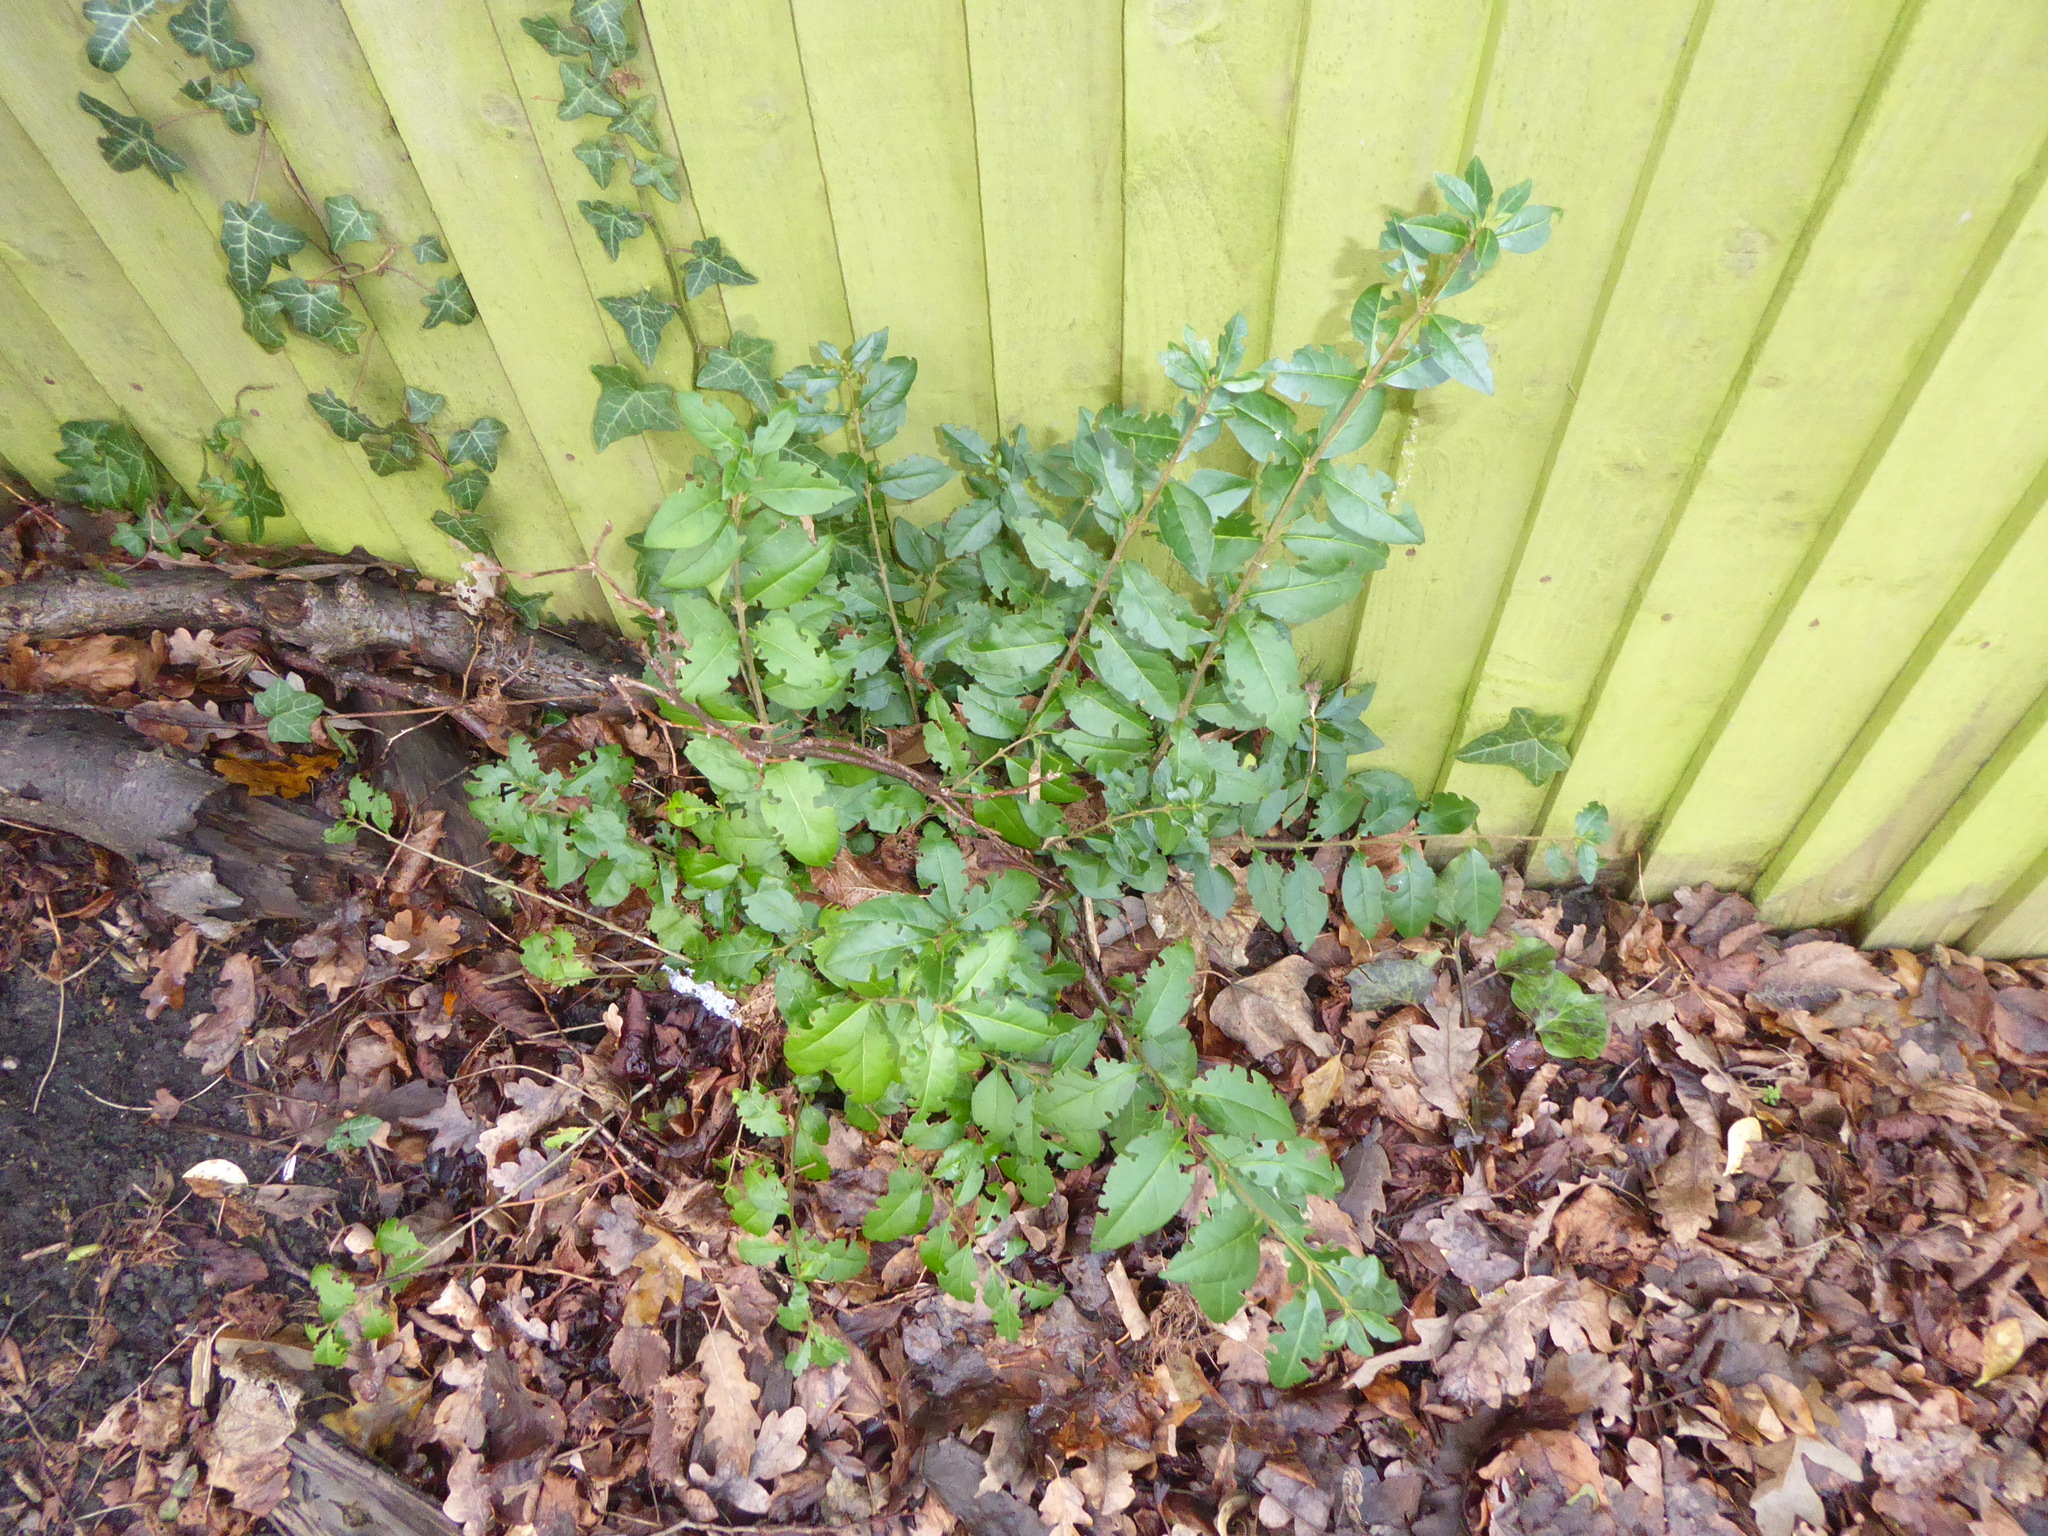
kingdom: Plantae
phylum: Tracheophyta
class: Magnoliopsida
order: Lamiales
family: Oleaceae
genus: Ligustrum
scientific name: Ligustrum ovalifolium
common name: California privet
